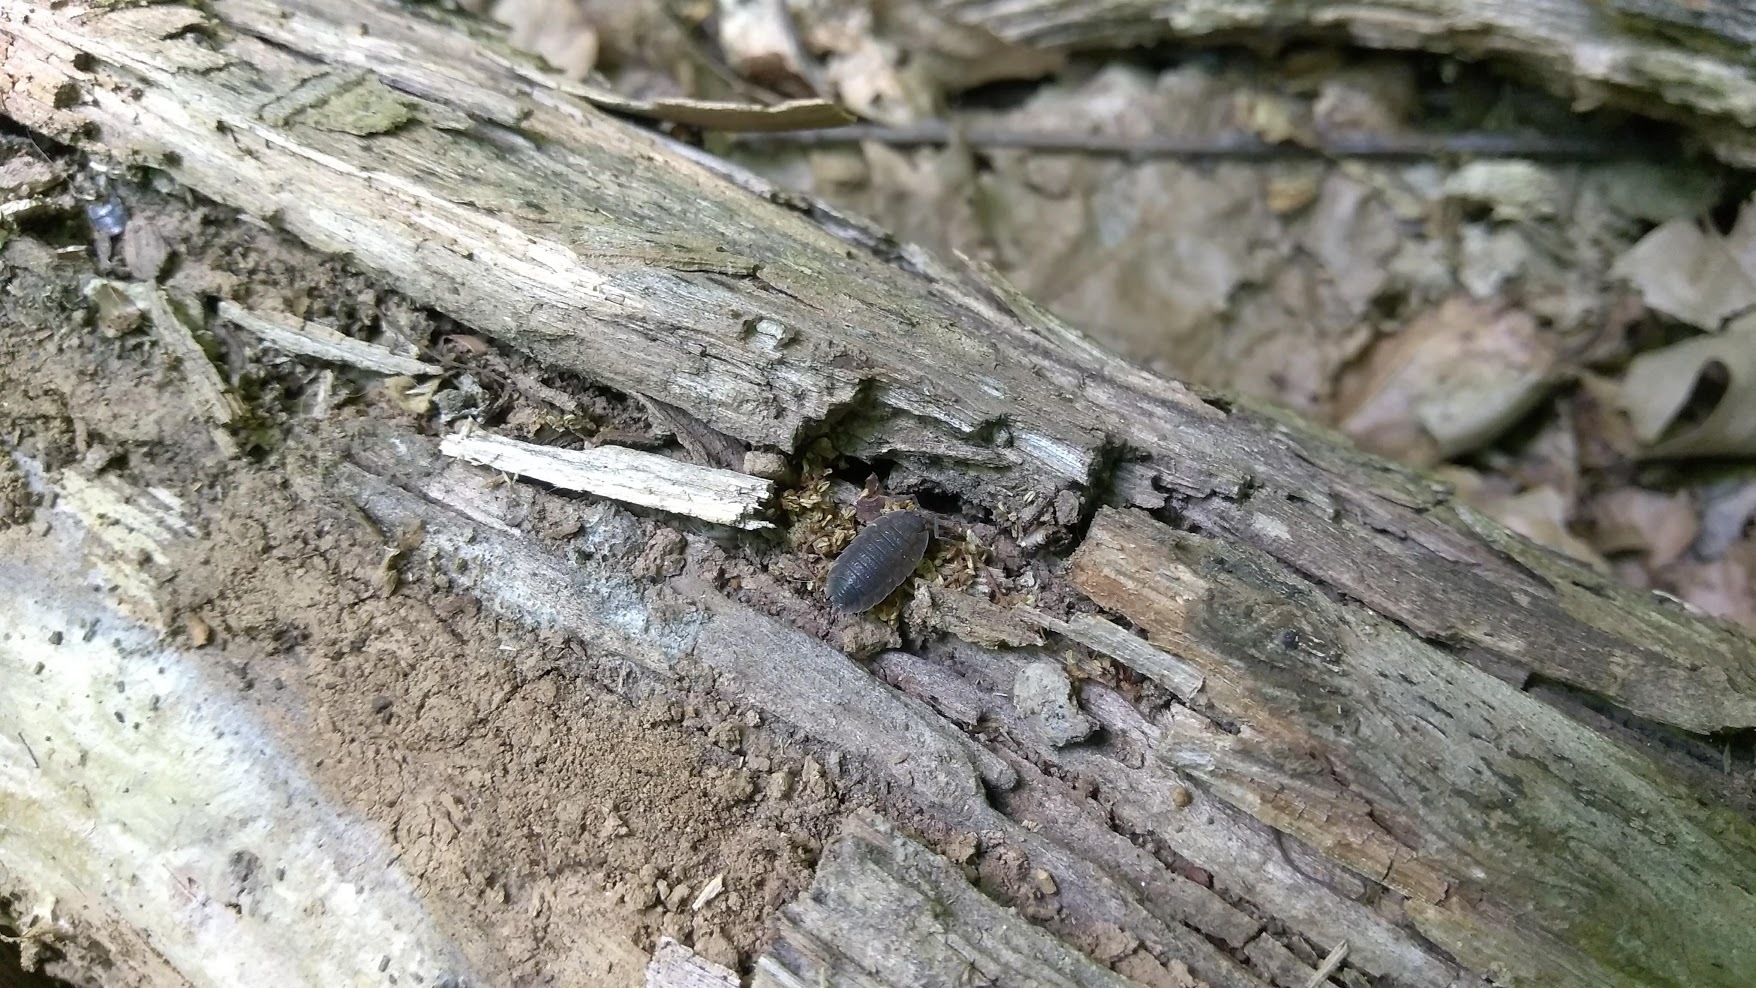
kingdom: Animalia
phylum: Arthropoda
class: Malacostraca
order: Isopoda
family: Porcellionidae
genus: Porcellio
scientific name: Porcellio scaber
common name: Common rough woodlouse
